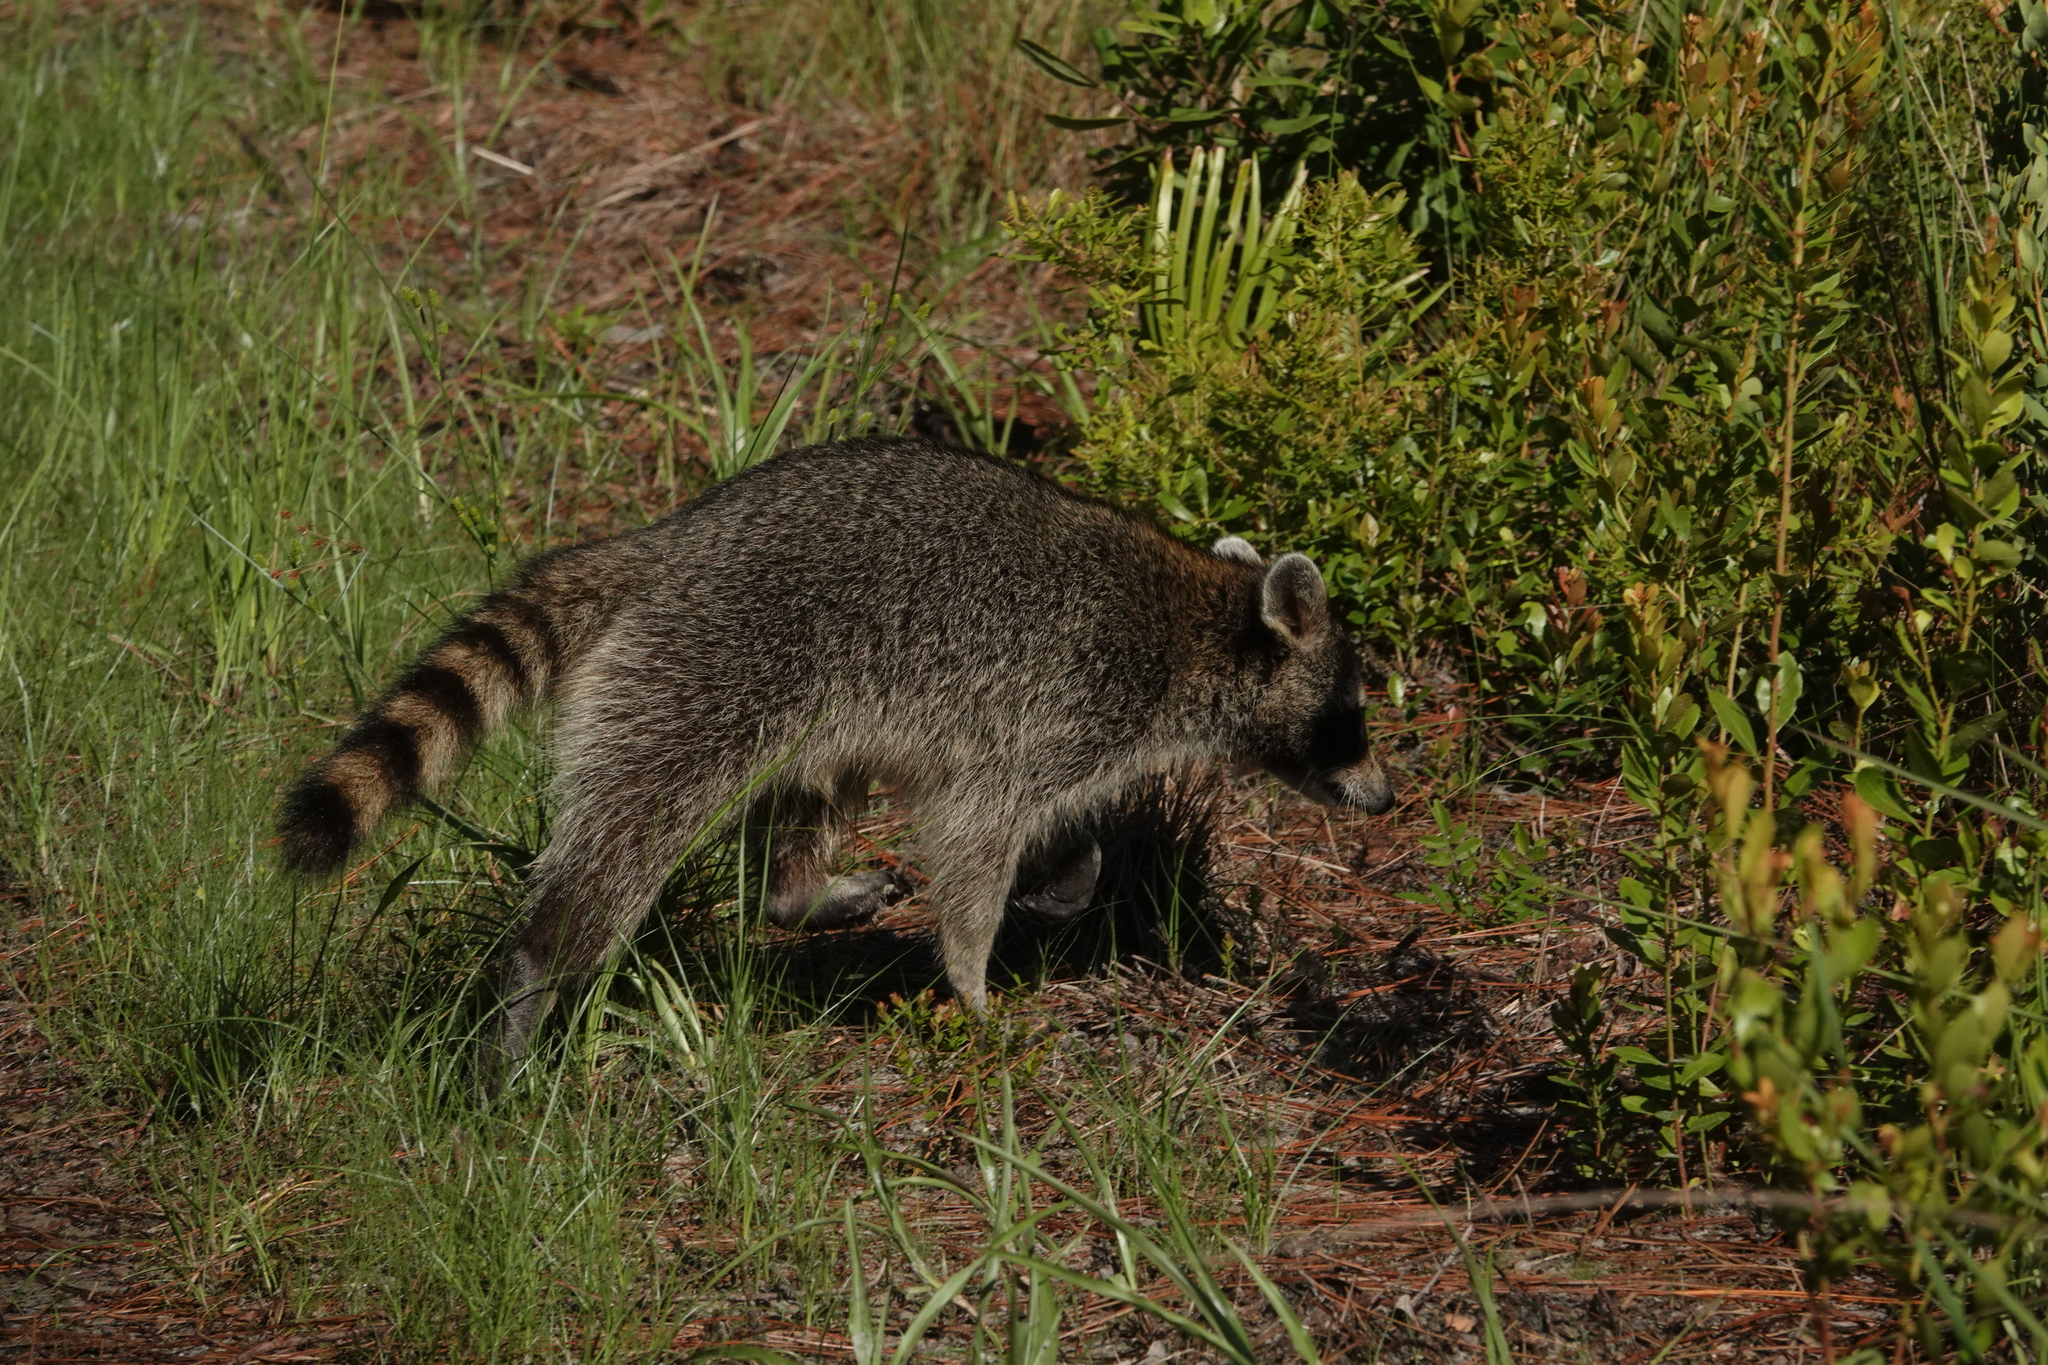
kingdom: Animalia
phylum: Chordata
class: Mammalia
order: Carnivora
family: Procyonidae
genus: Procyon
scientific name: Procyon lotor
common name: Raccoon
